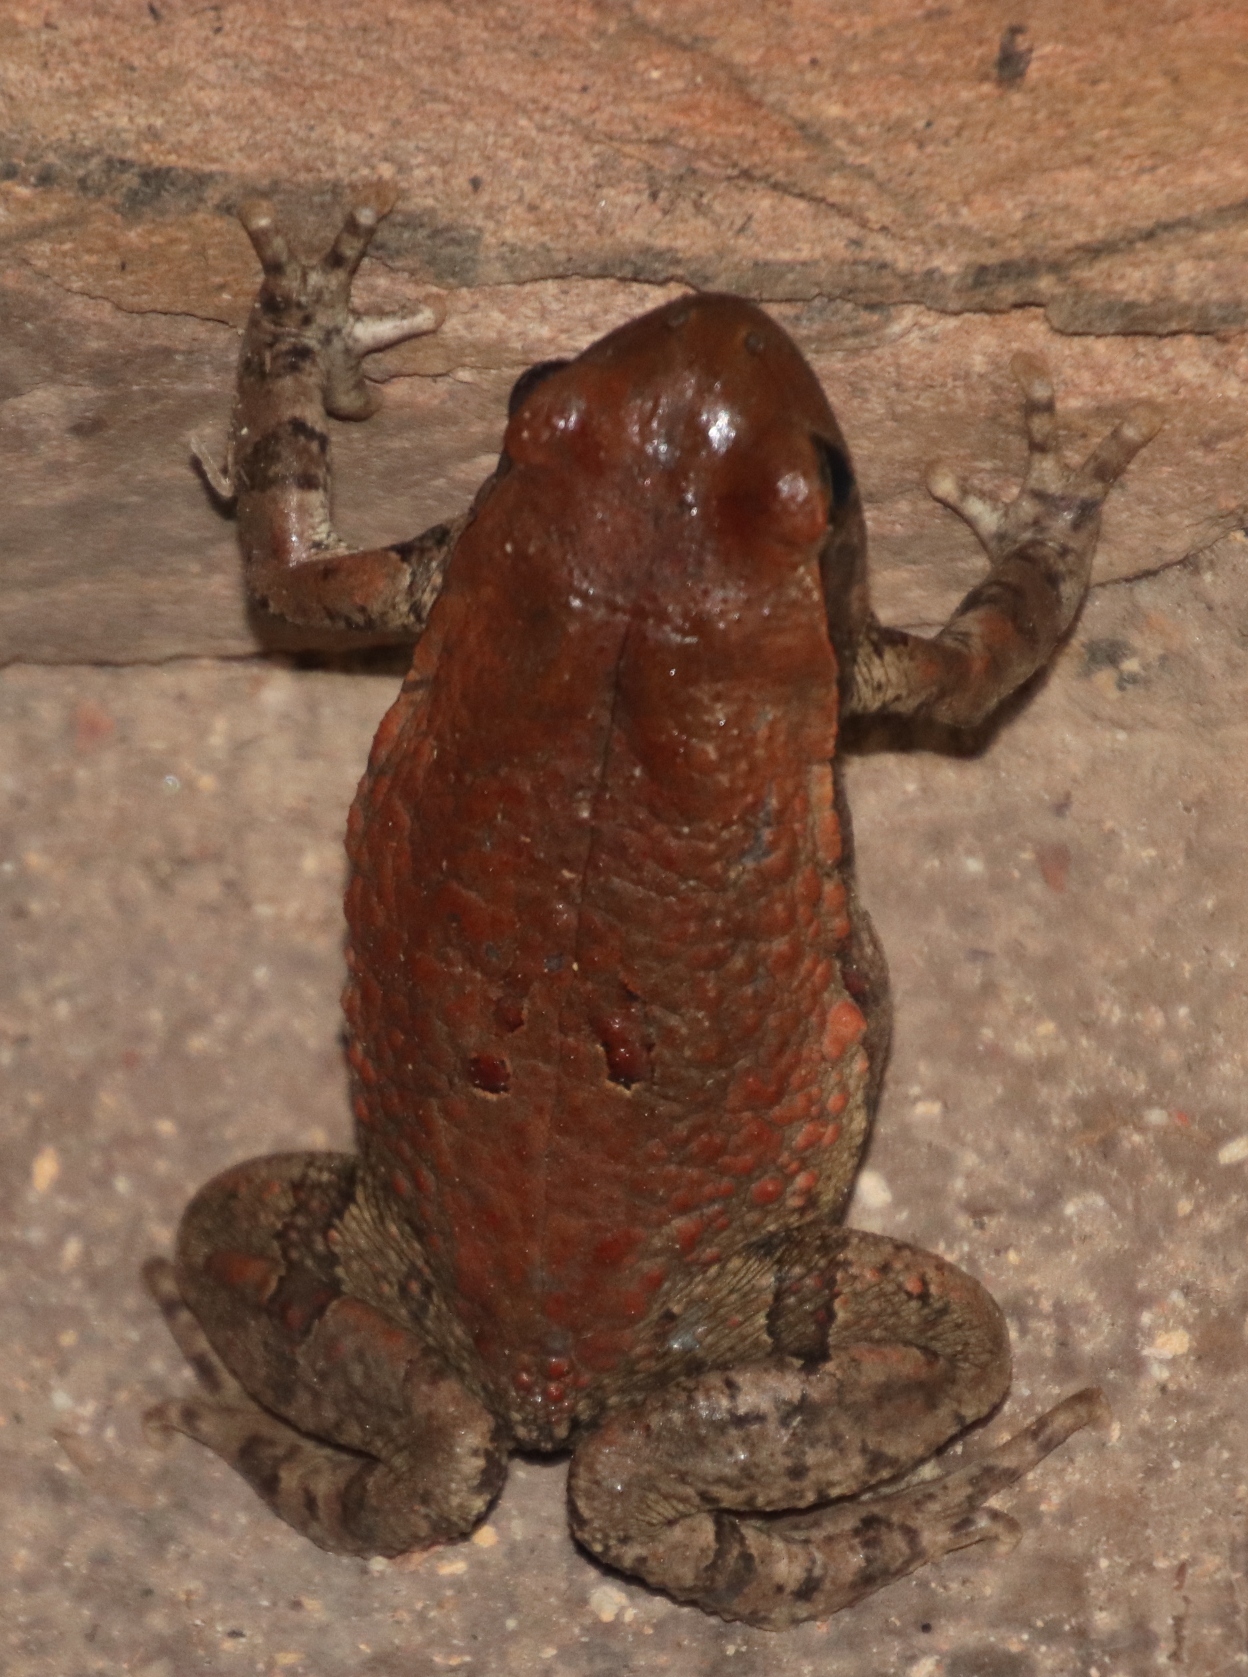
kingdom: Animalia
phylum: Chordata
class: Amphibia
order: Anura
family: Bufonidae
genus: Schismaderma
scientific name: Schismaderma carens
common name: African split-skin toad
